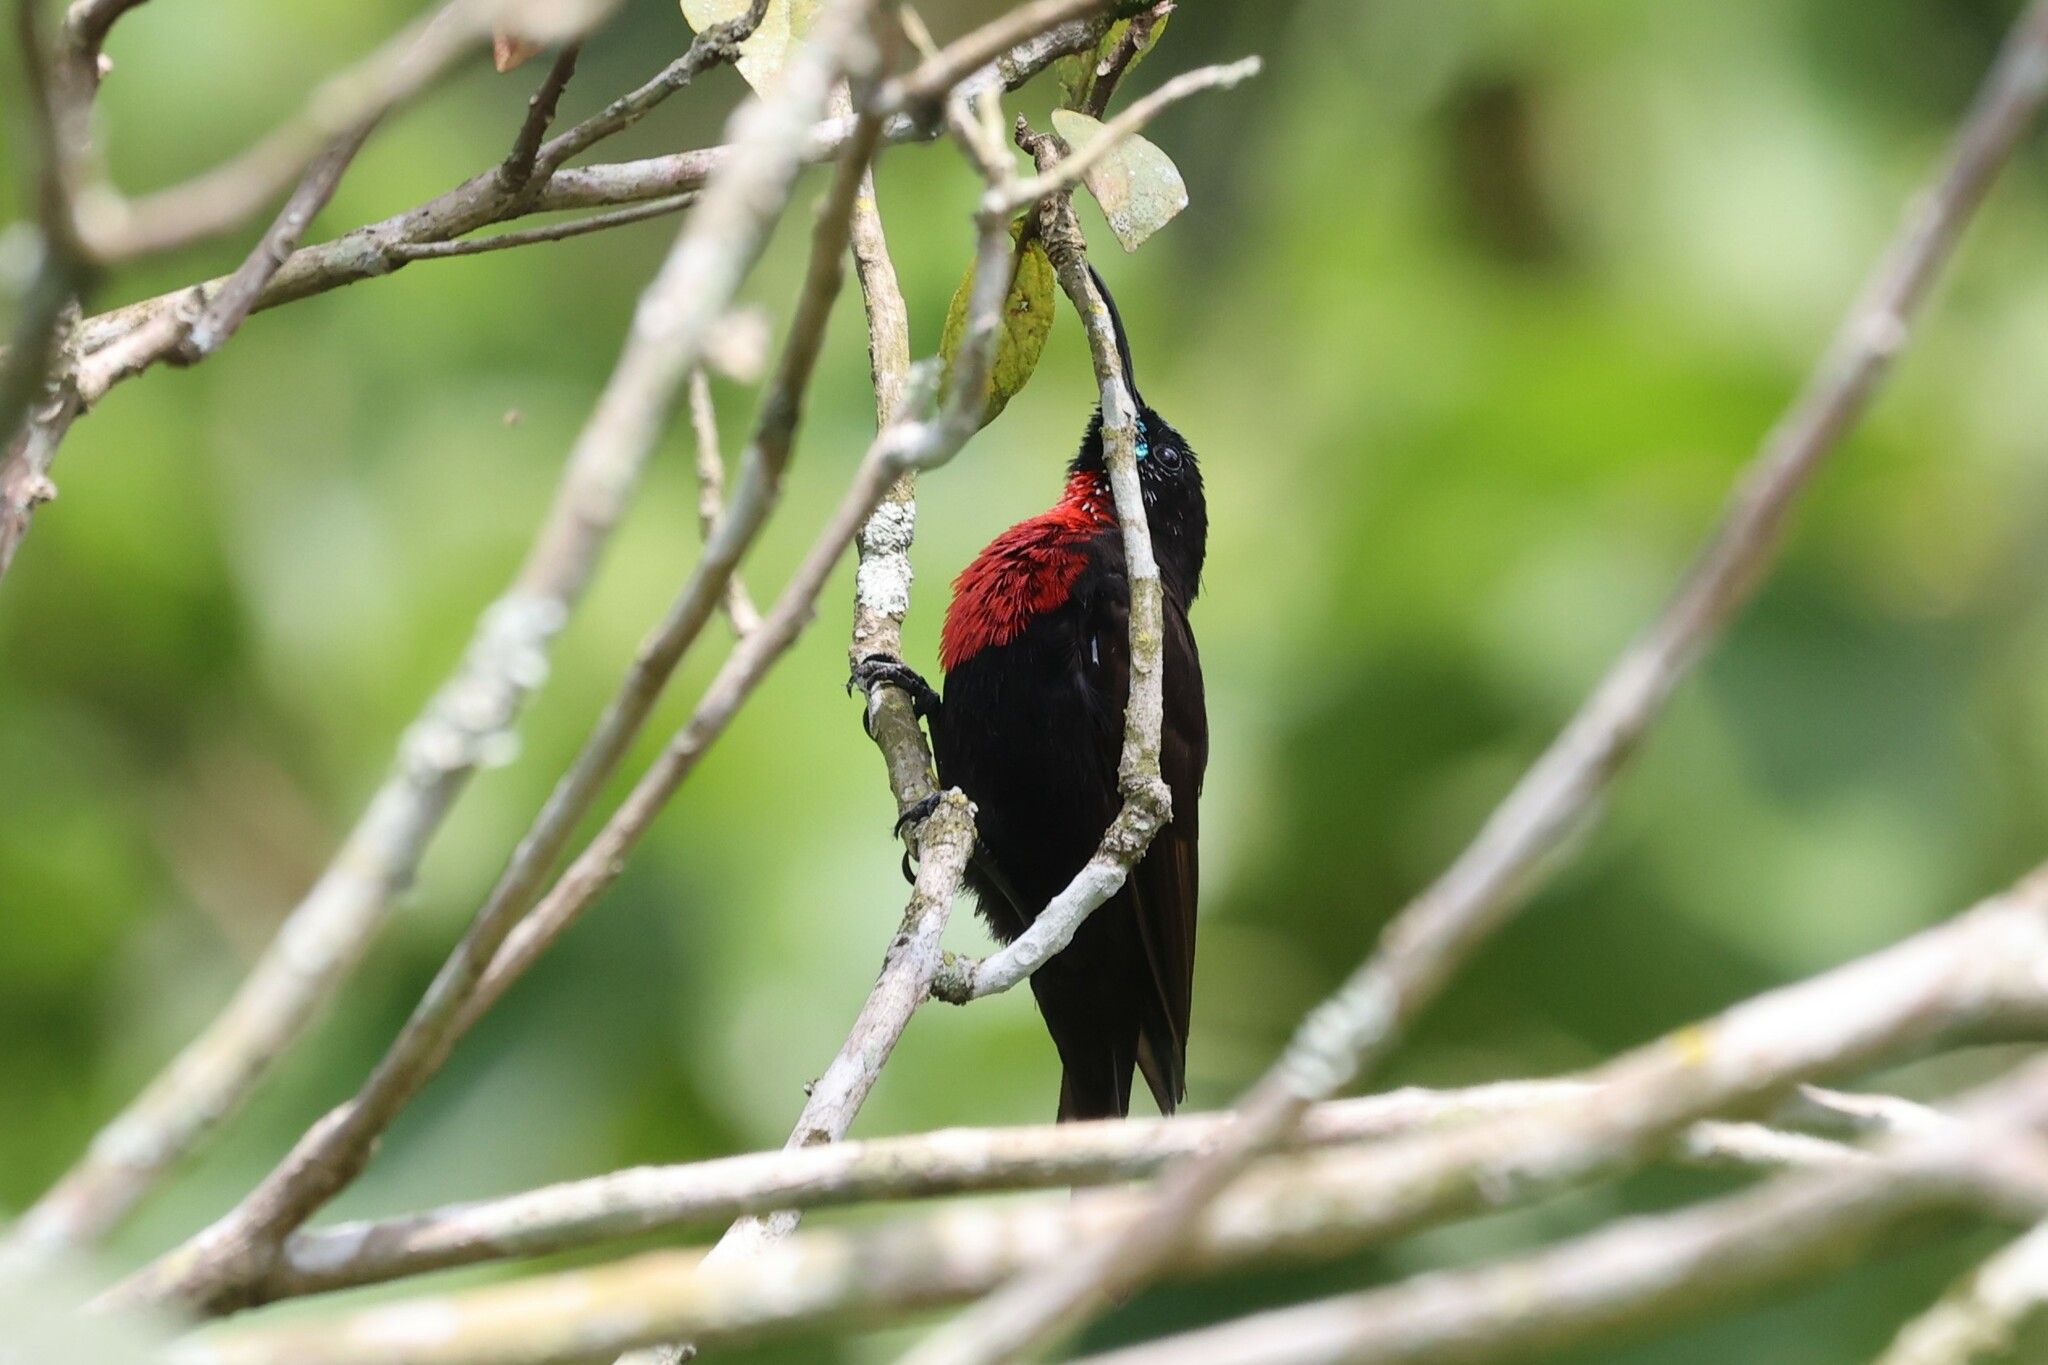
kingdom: Animalia
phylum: Chordata
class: Aves
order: Passeriformes
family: Nectariniidae
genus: Chalcomitra
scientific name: Chalcomitra senegalensis
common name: Scarlet-chested sunbird
